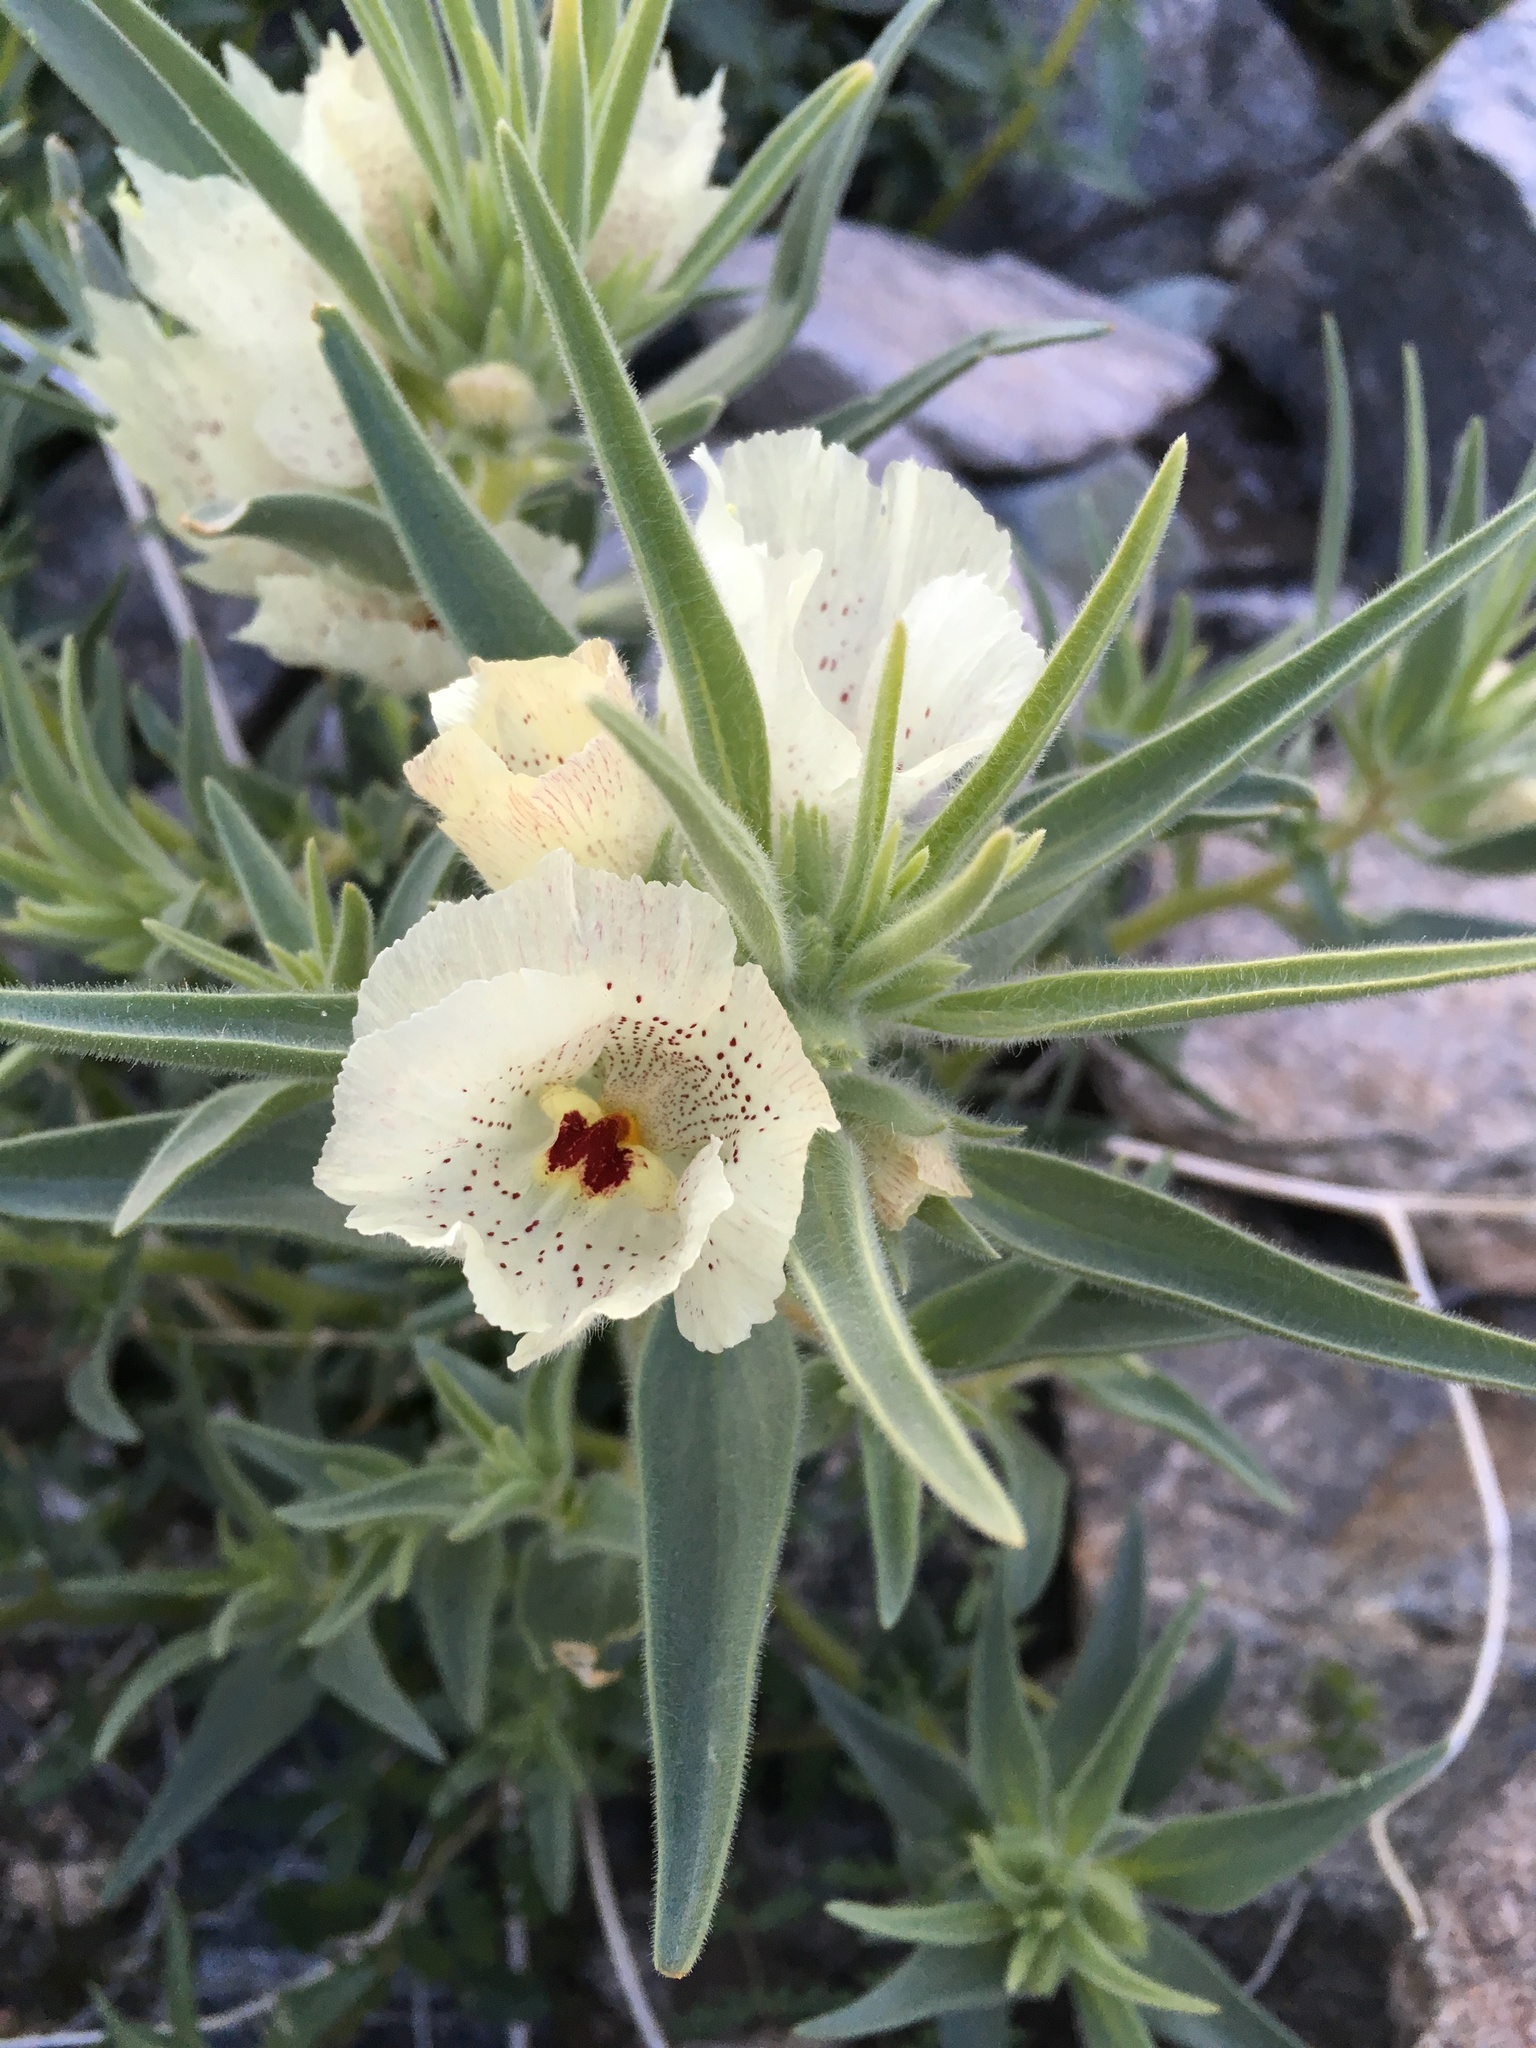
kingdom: Plantae
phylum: Tracheophyta
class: Magnoliopsida
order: Lamiales
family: Plantaginaceae
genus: Mohavea
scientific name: Mohavea confertiflora
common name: Ghost flower
